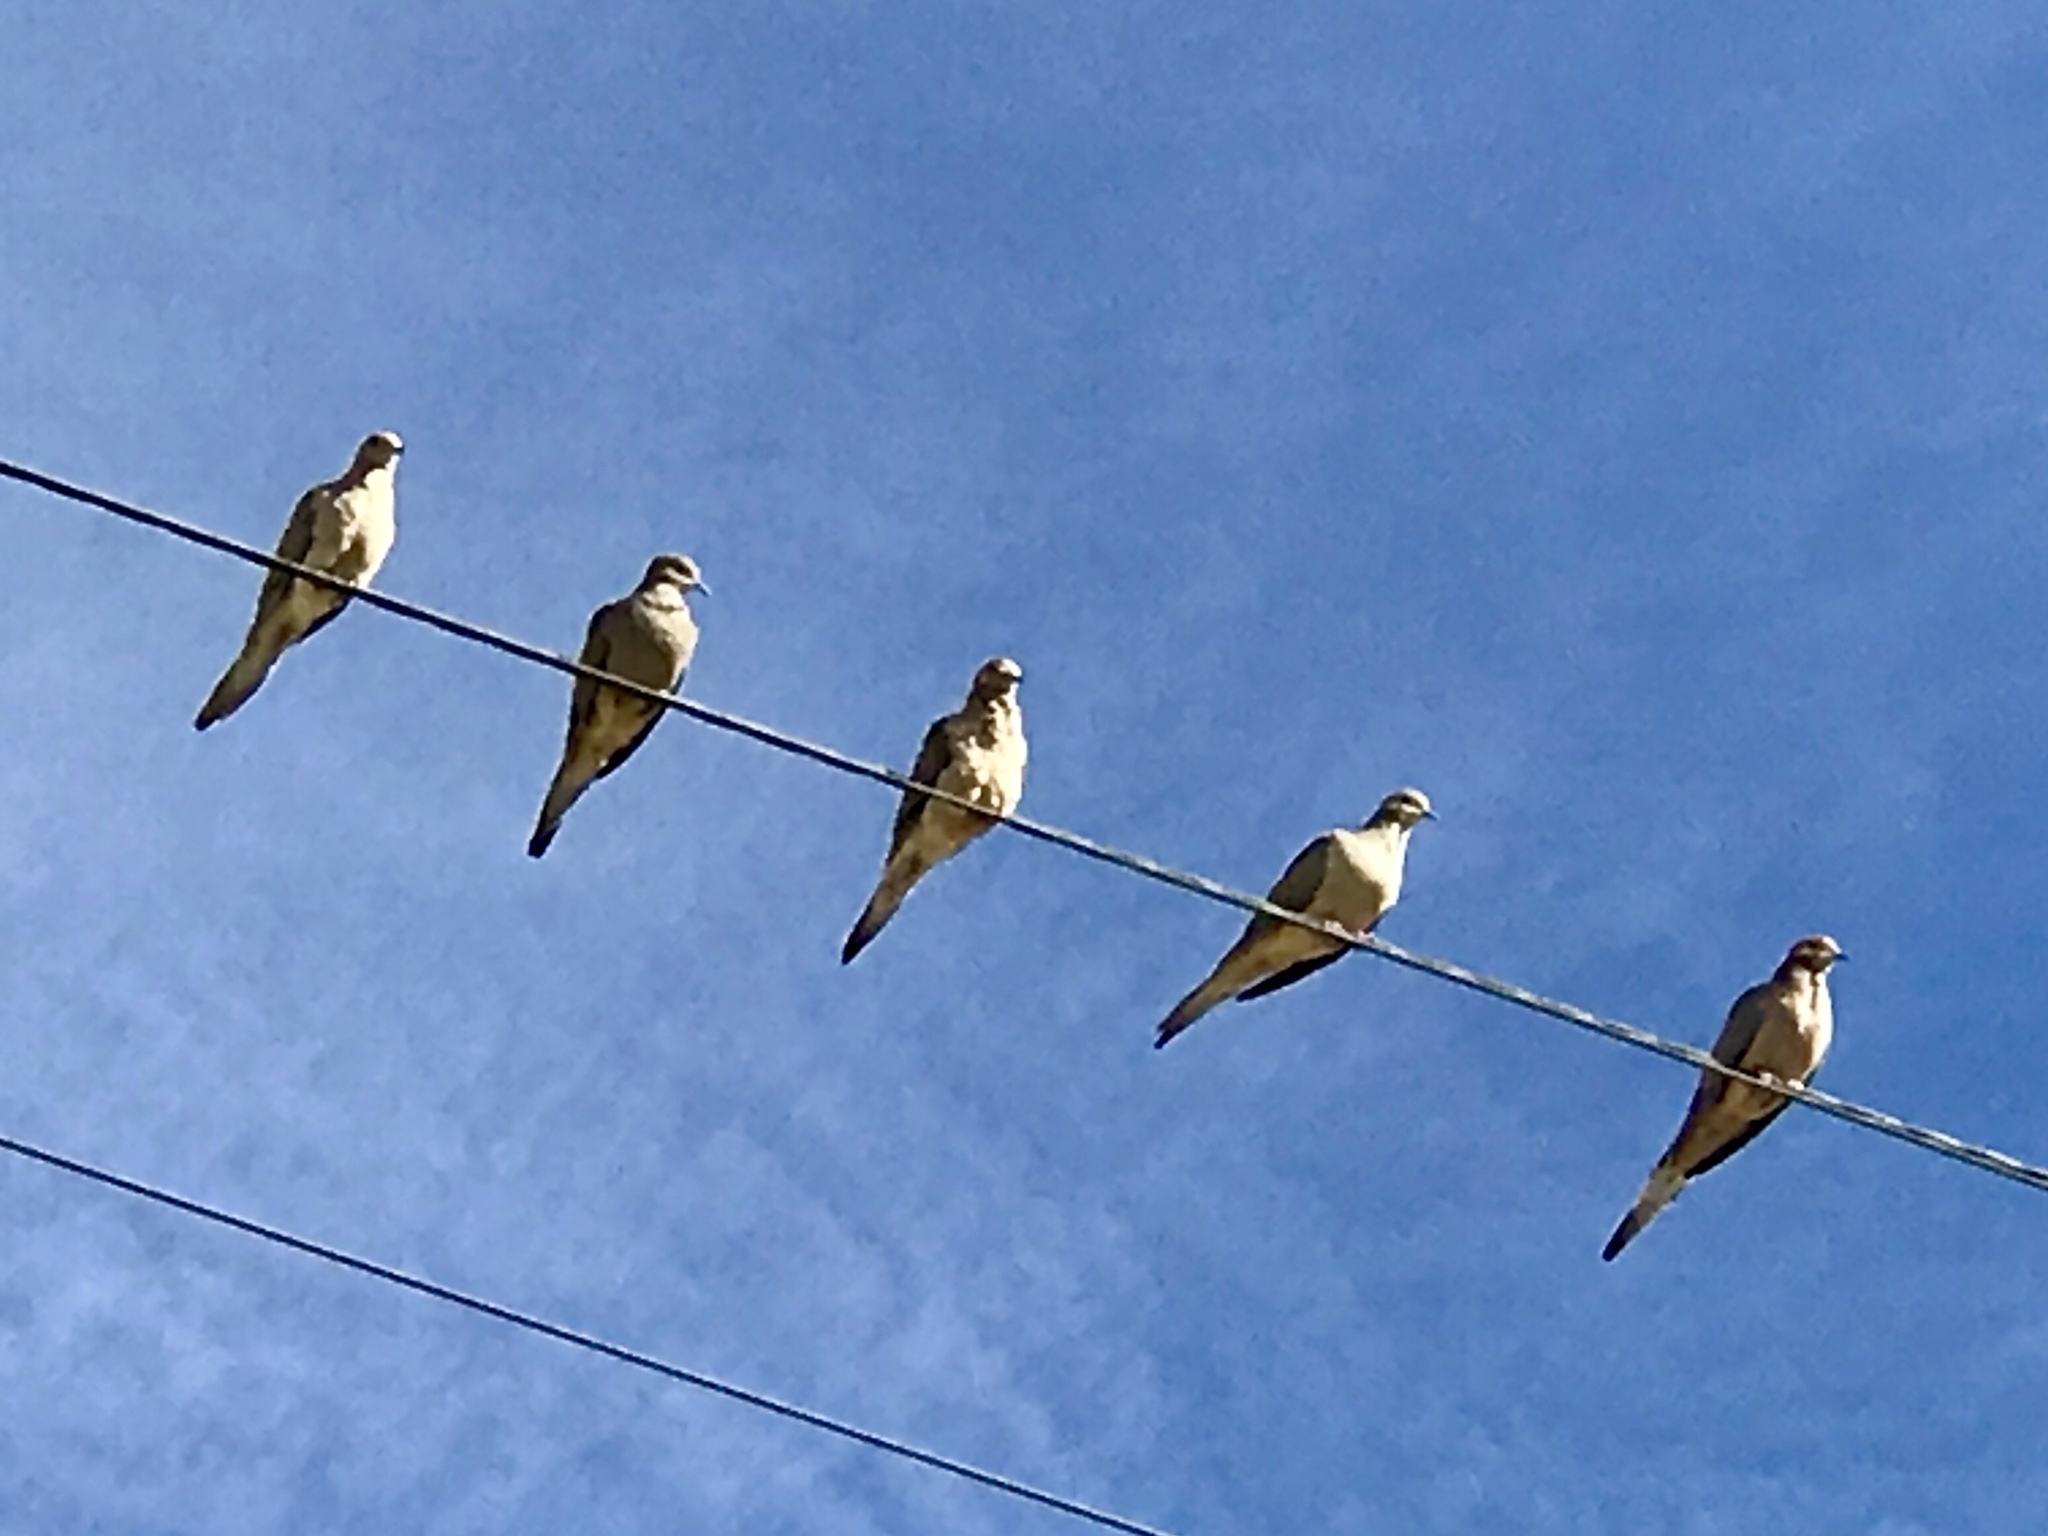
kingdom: Animalia
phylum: Chordata
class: Aves
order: Columbiformes
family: Columbidae
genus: Zenaida
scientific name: Zenaida macroura
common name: Mourning dove
